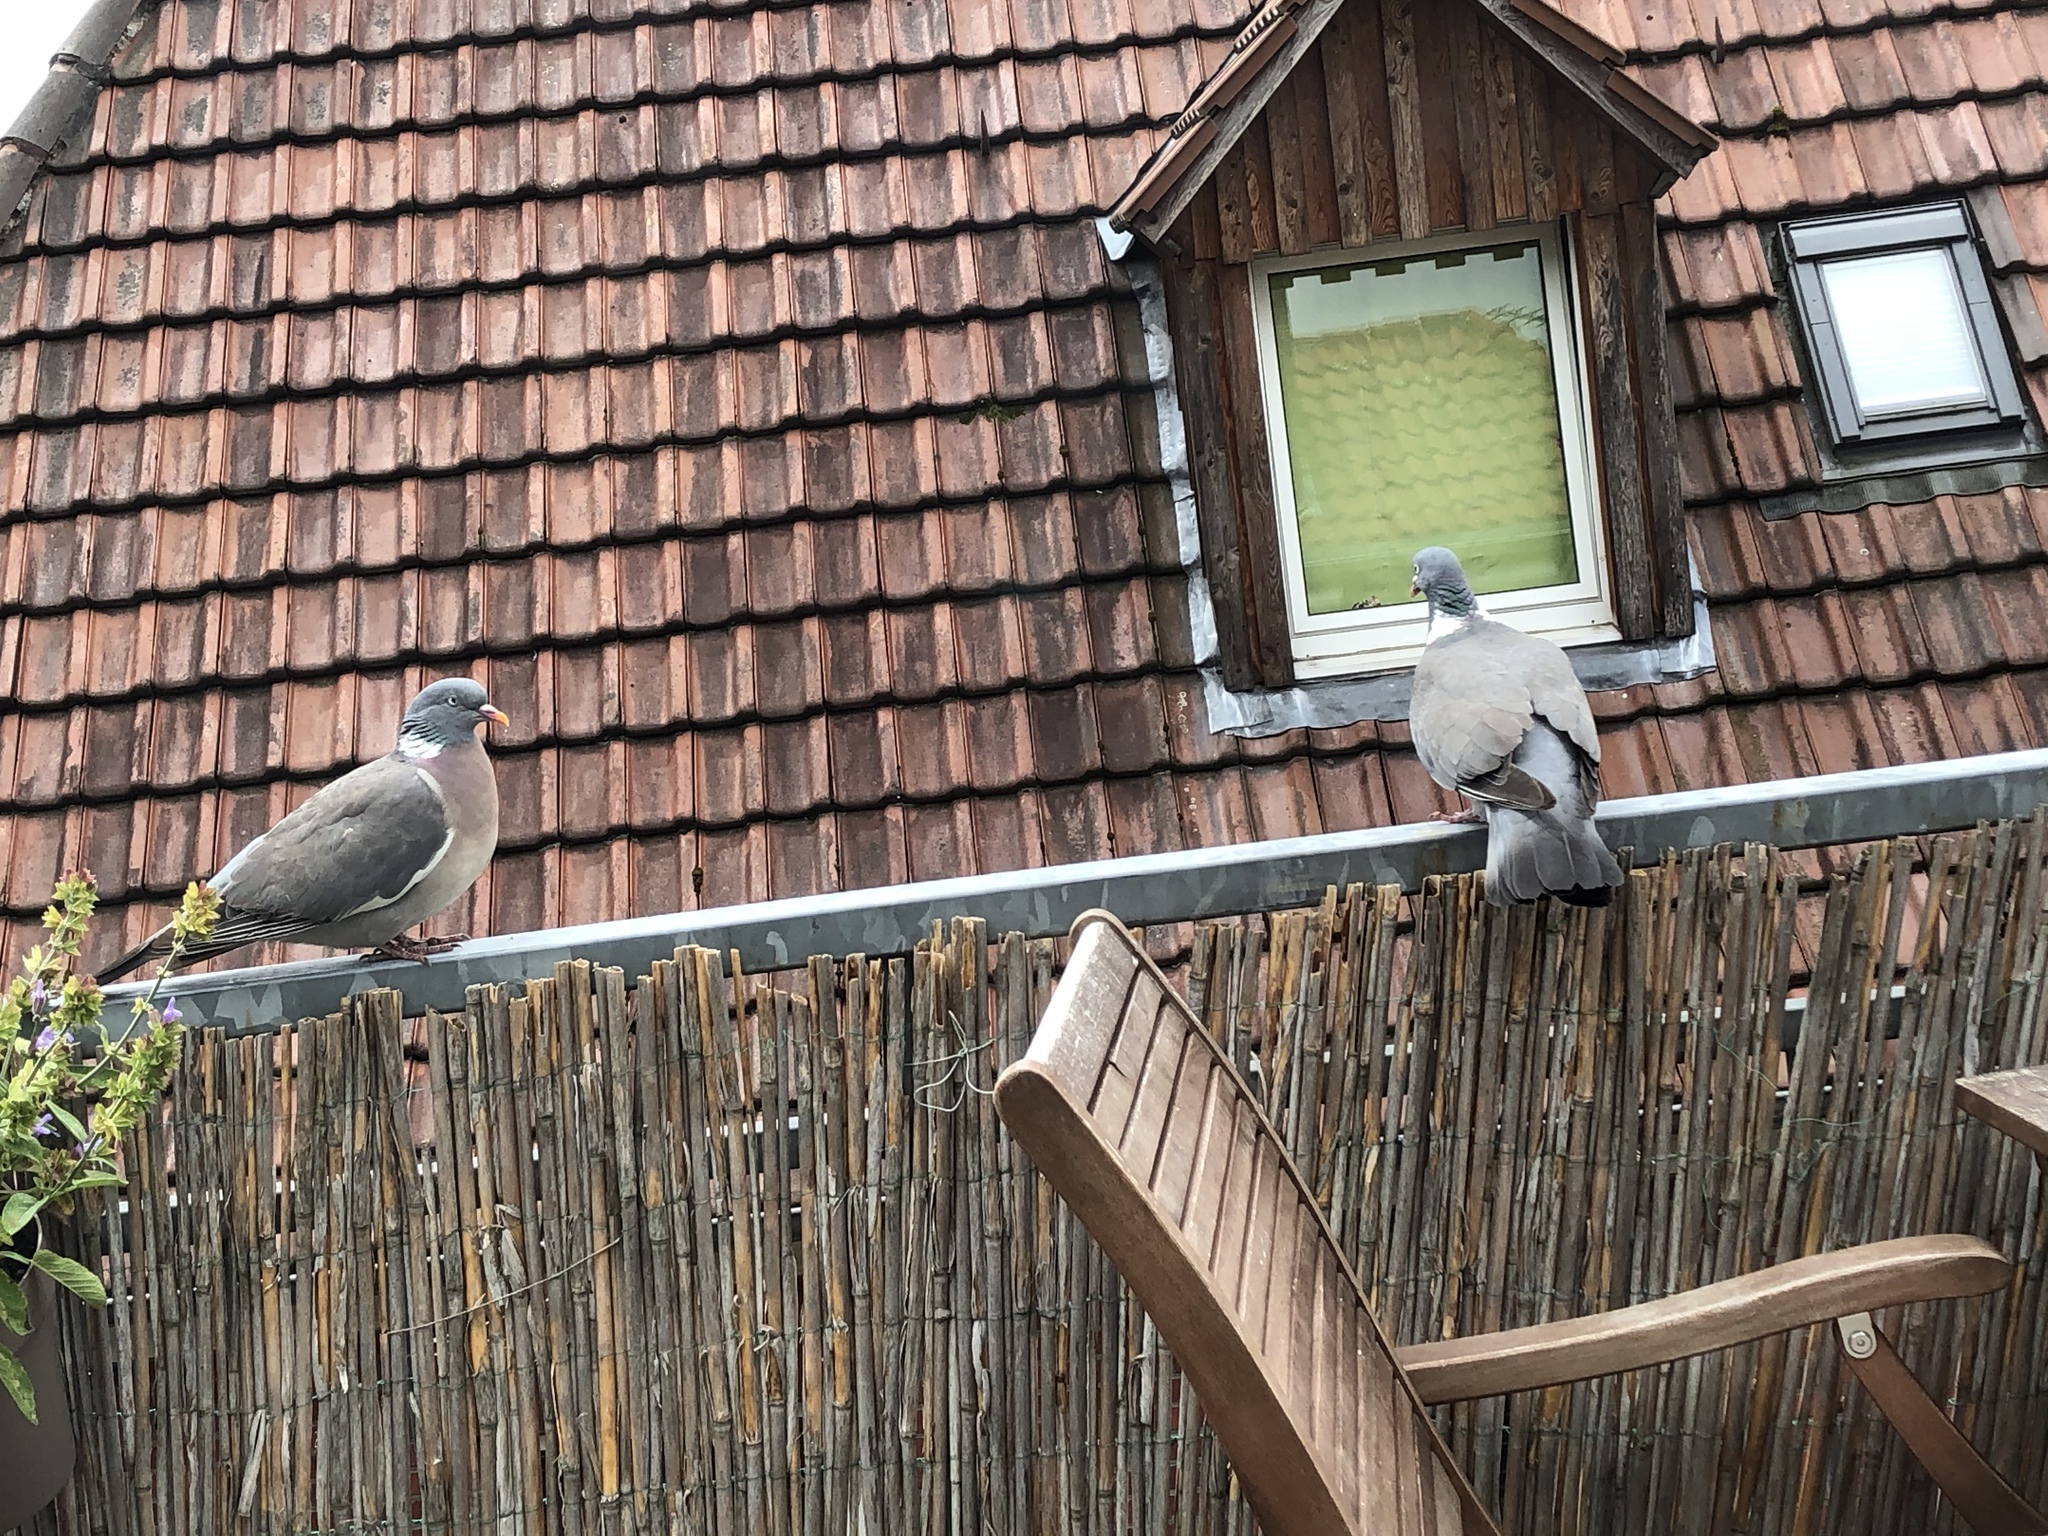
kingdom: Animalia
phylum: Chordata
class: Aves
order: Columbiformes
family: Columbidae
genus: Columba
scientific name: Columba palumbus
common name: Common wood pigeon
